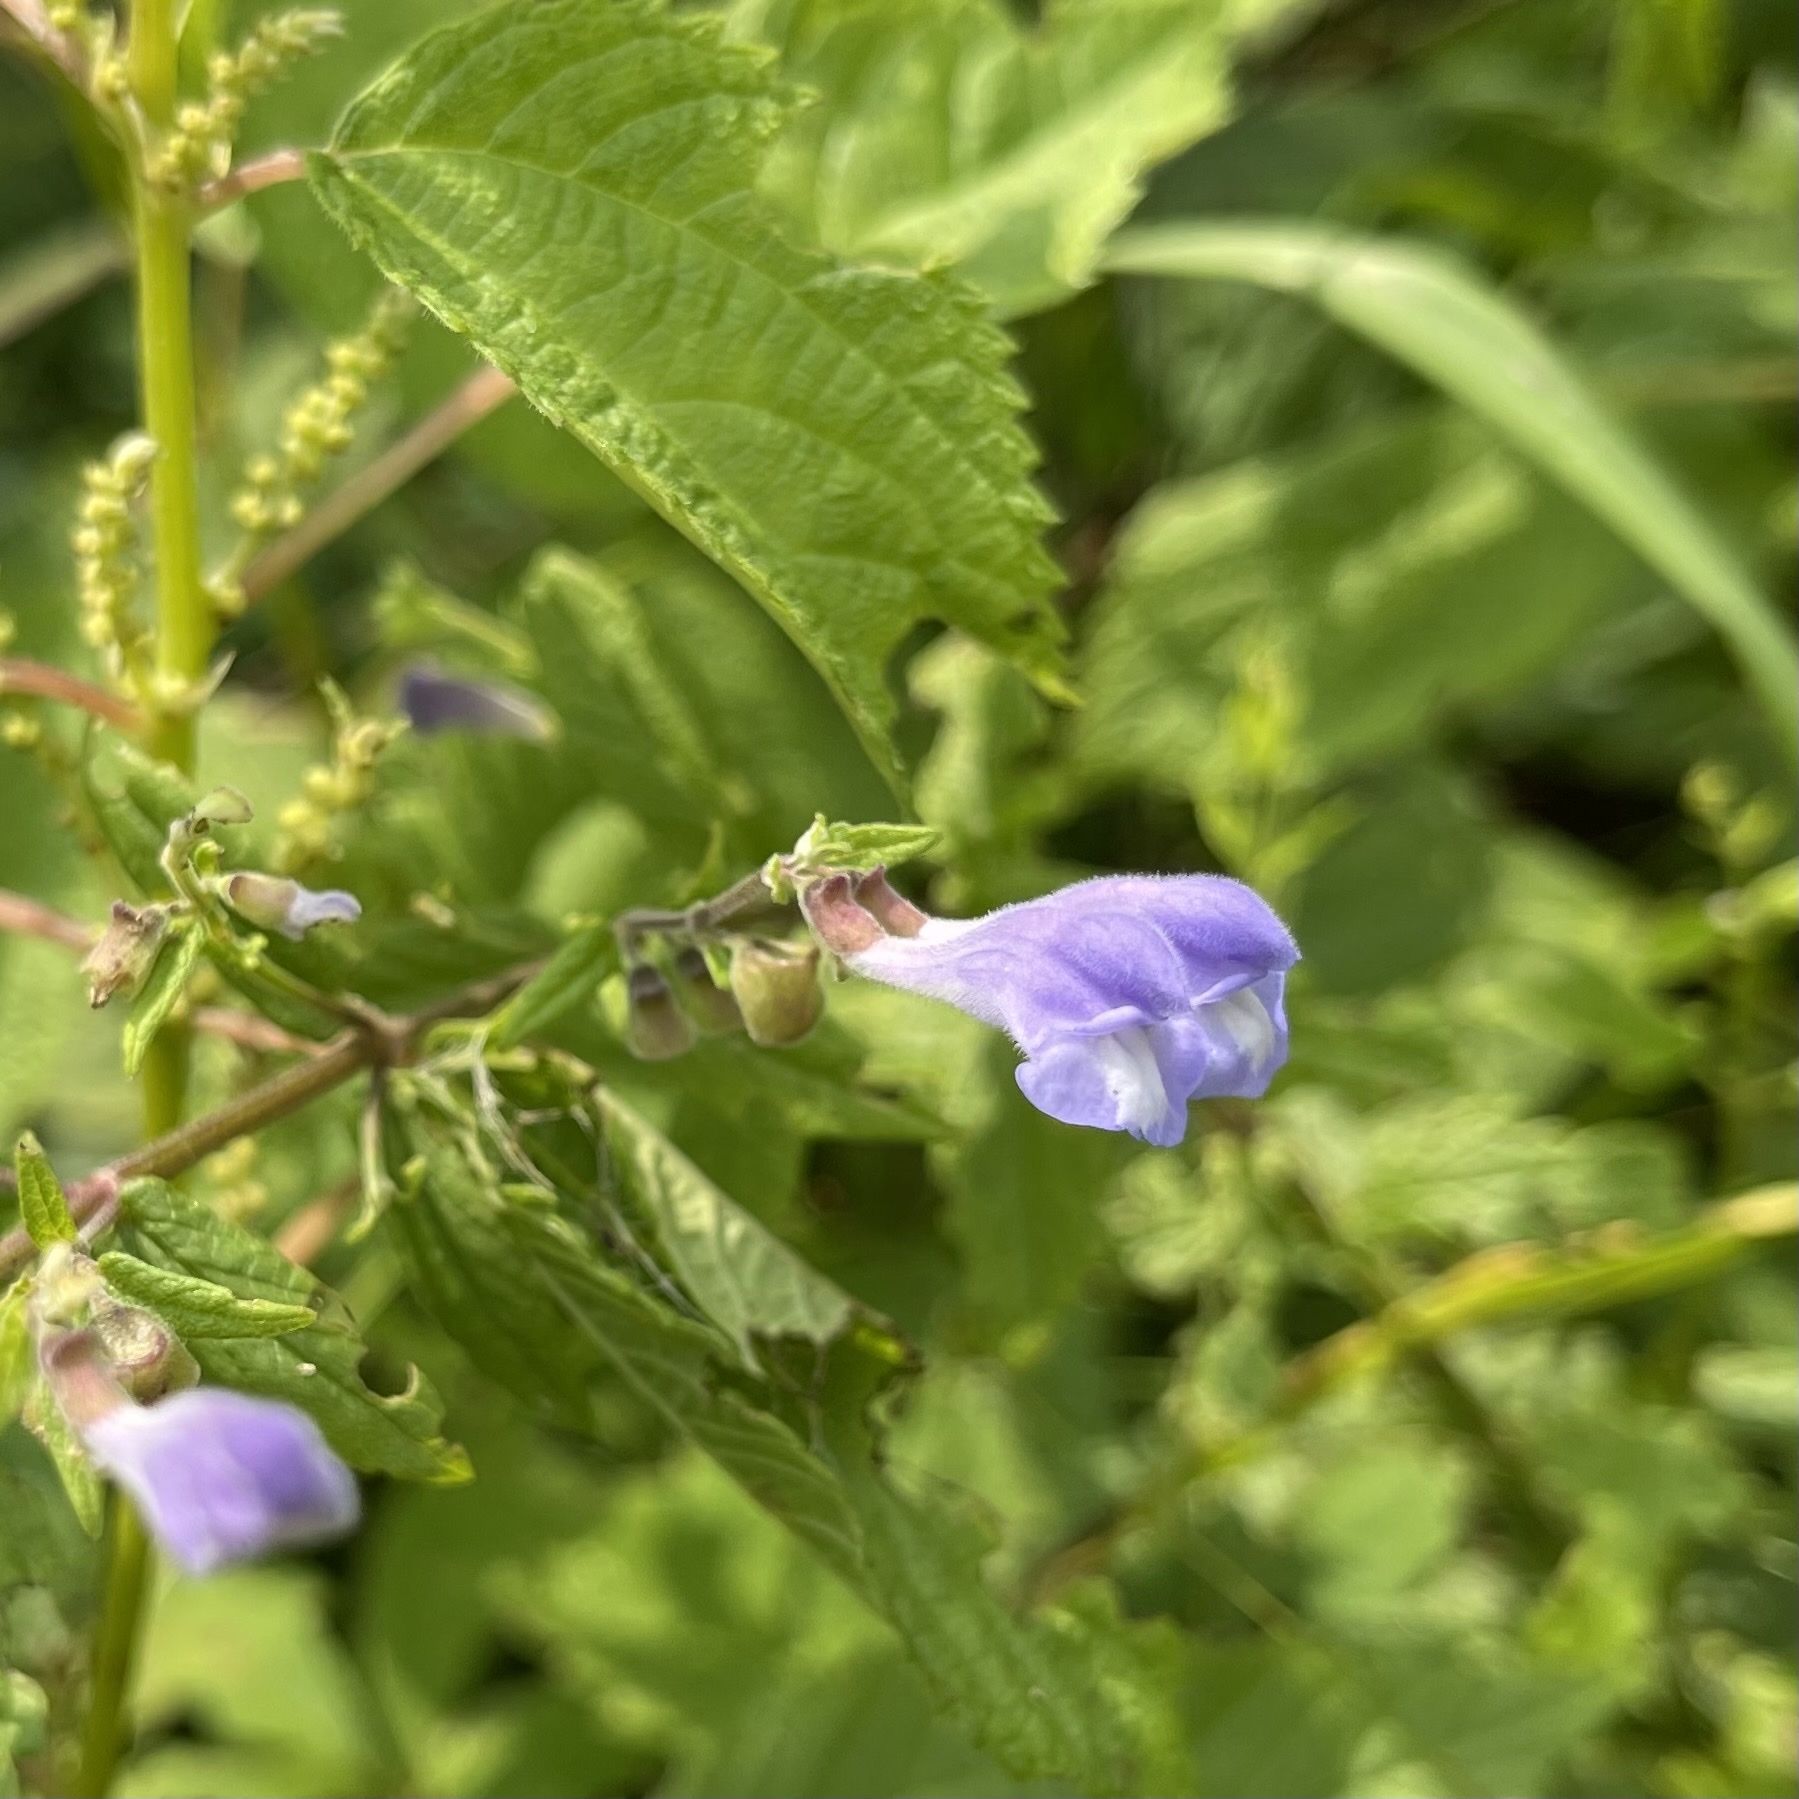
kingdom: Plantae
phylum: Tracheophyta
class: Magnoliopsida
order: Lamiales
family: Lamiaceae
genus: Scutellaria
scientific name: Scutellaria galericulata
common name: Skullcap
